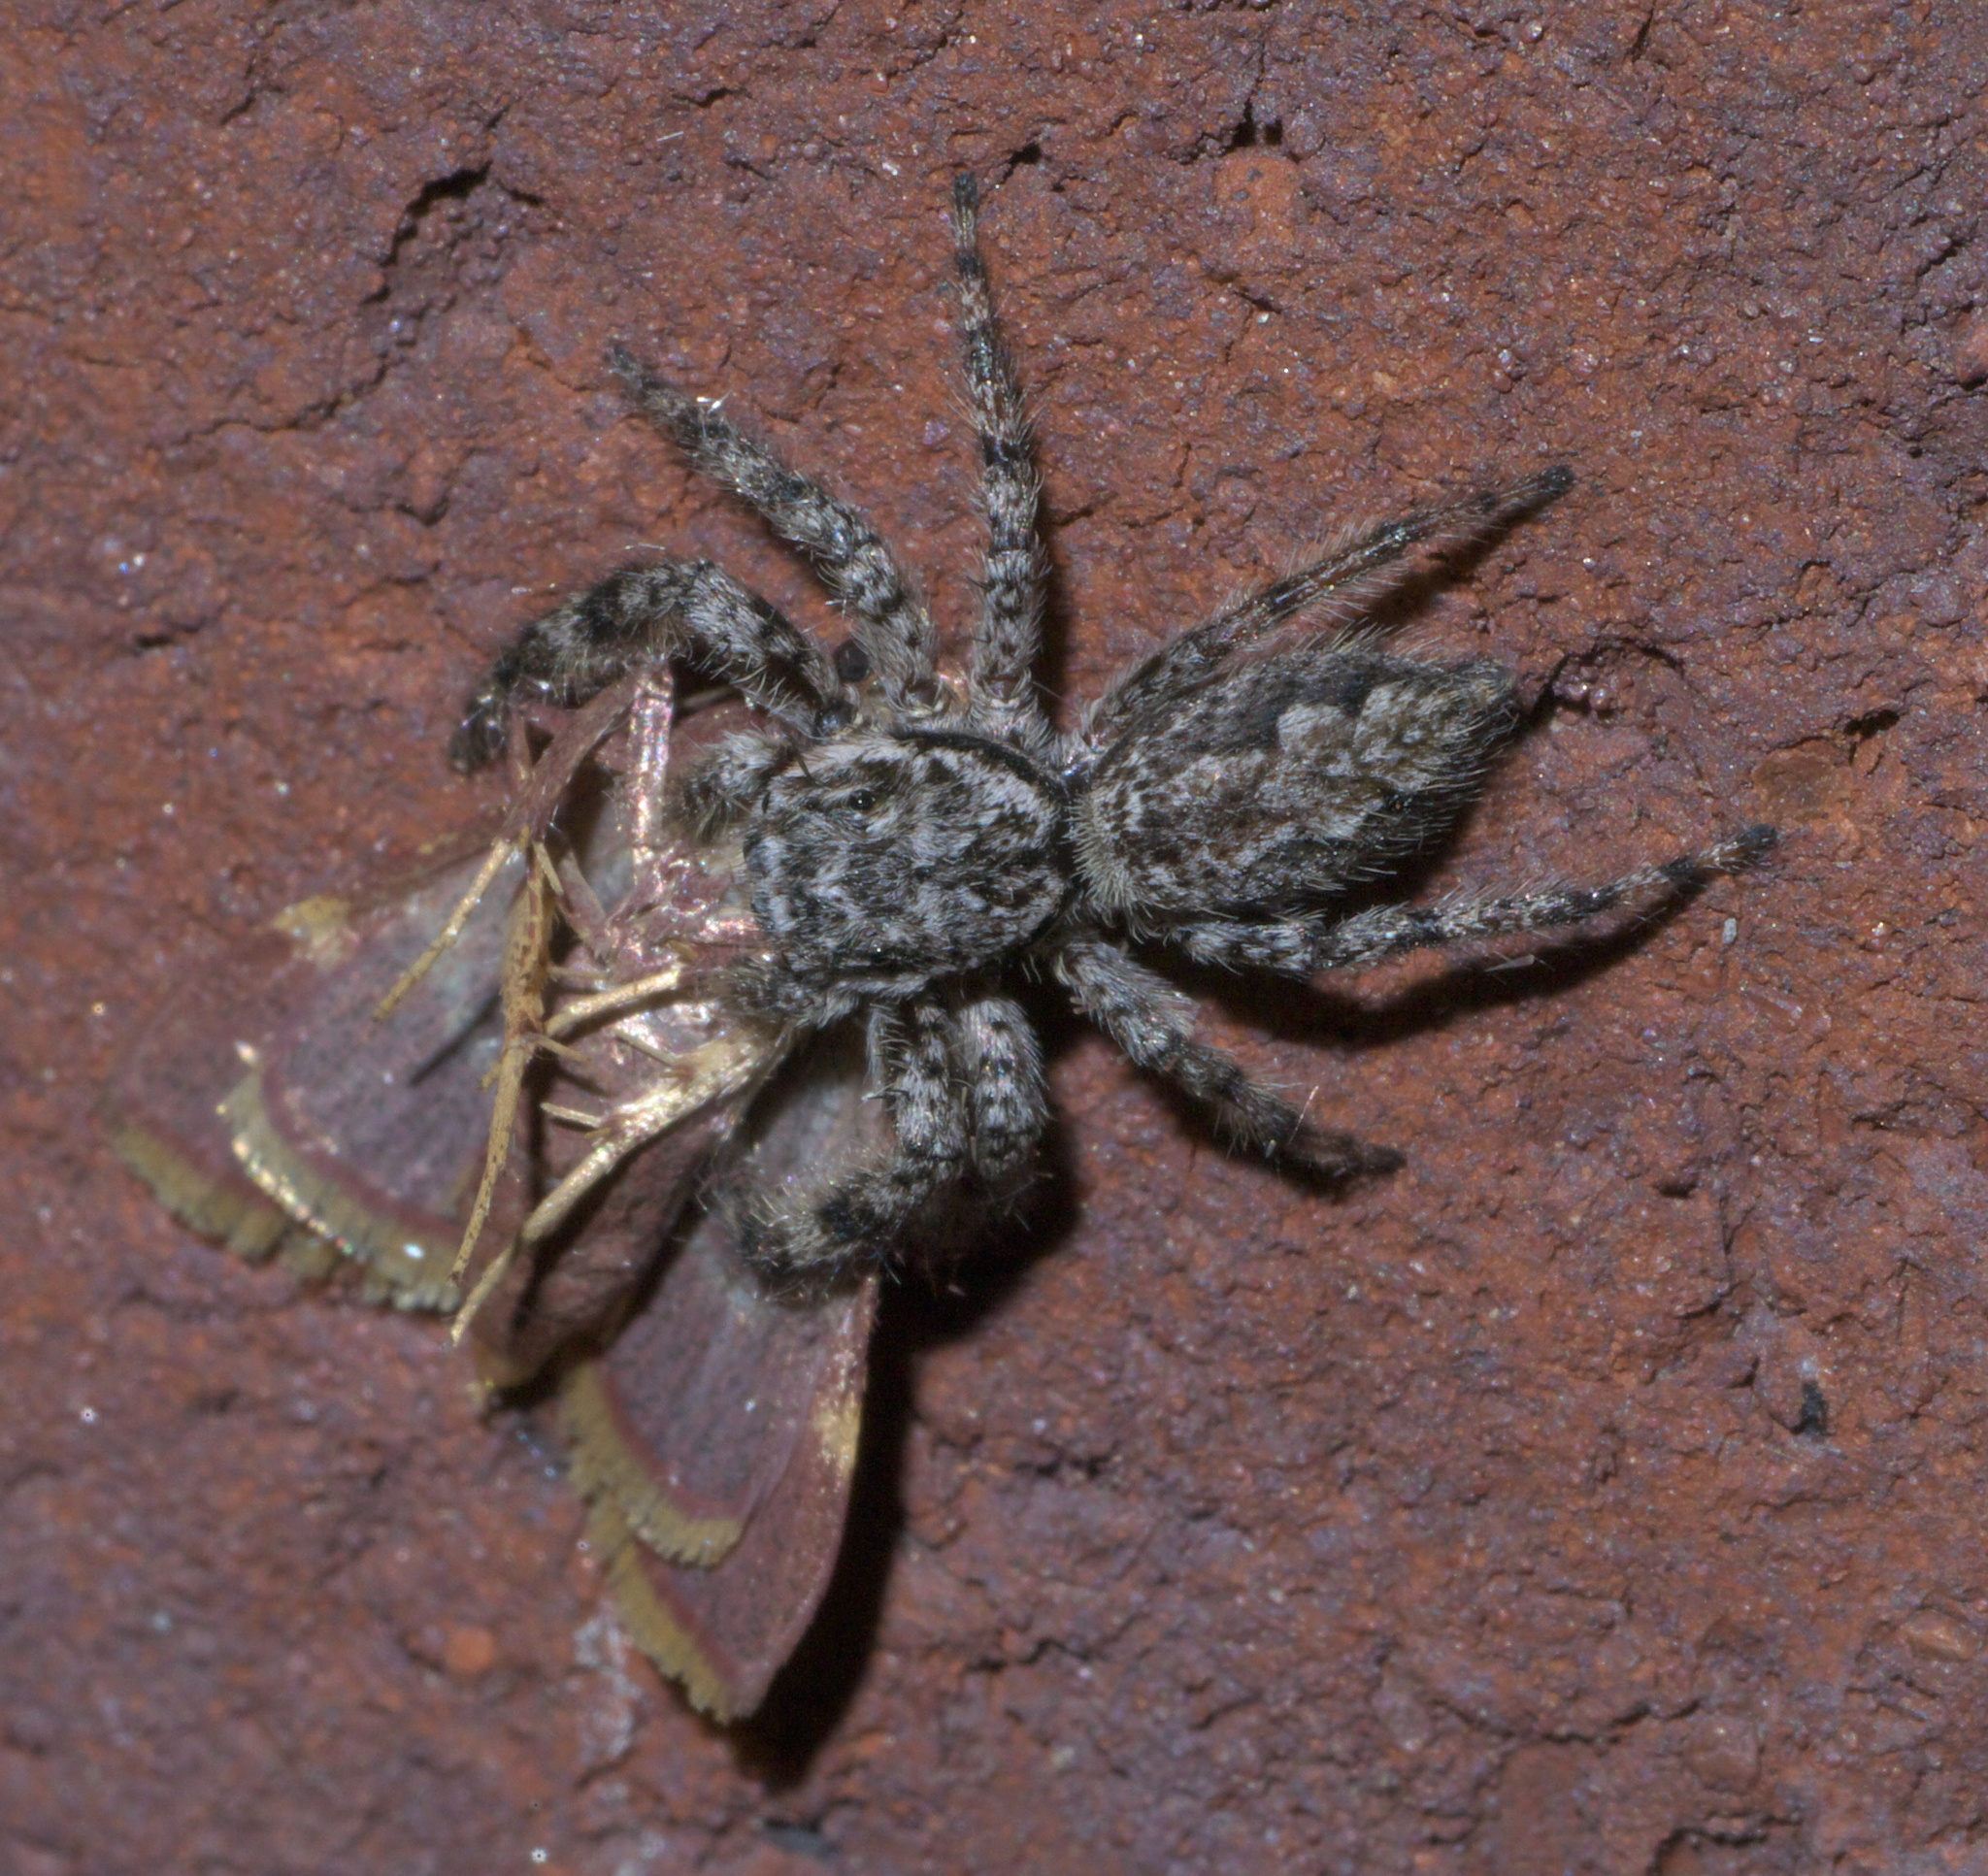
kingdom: Animalia
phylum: Arthropoda
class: Arachnida
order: Araneae
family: Salticidae
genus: Platycryptus
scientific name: Platycryptus undatus
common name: Tan jumping spider
